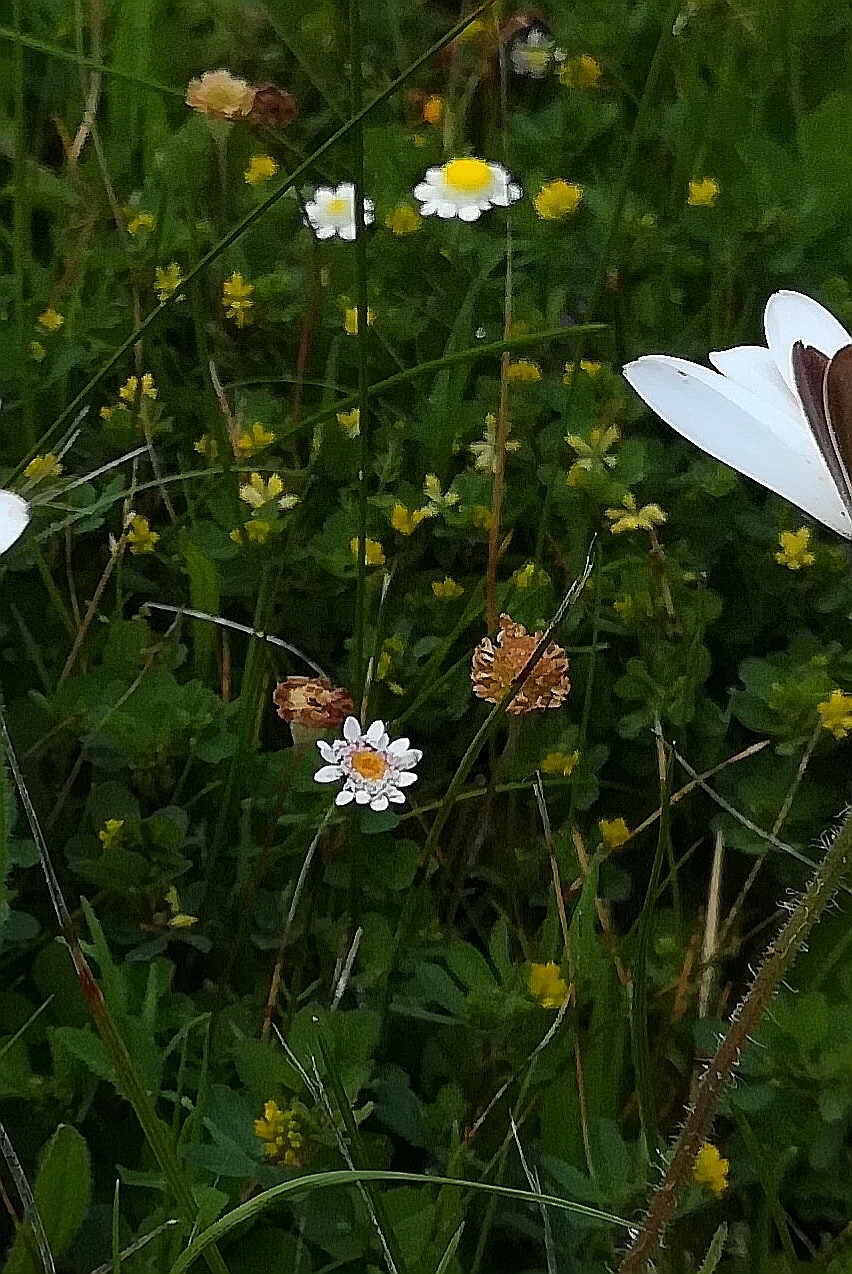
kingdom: Plantae
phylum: Tracheophyta
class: Magnoliopsida
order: Asterales
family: Asteraceae
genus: Cotula
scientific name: Cotula turbinata
